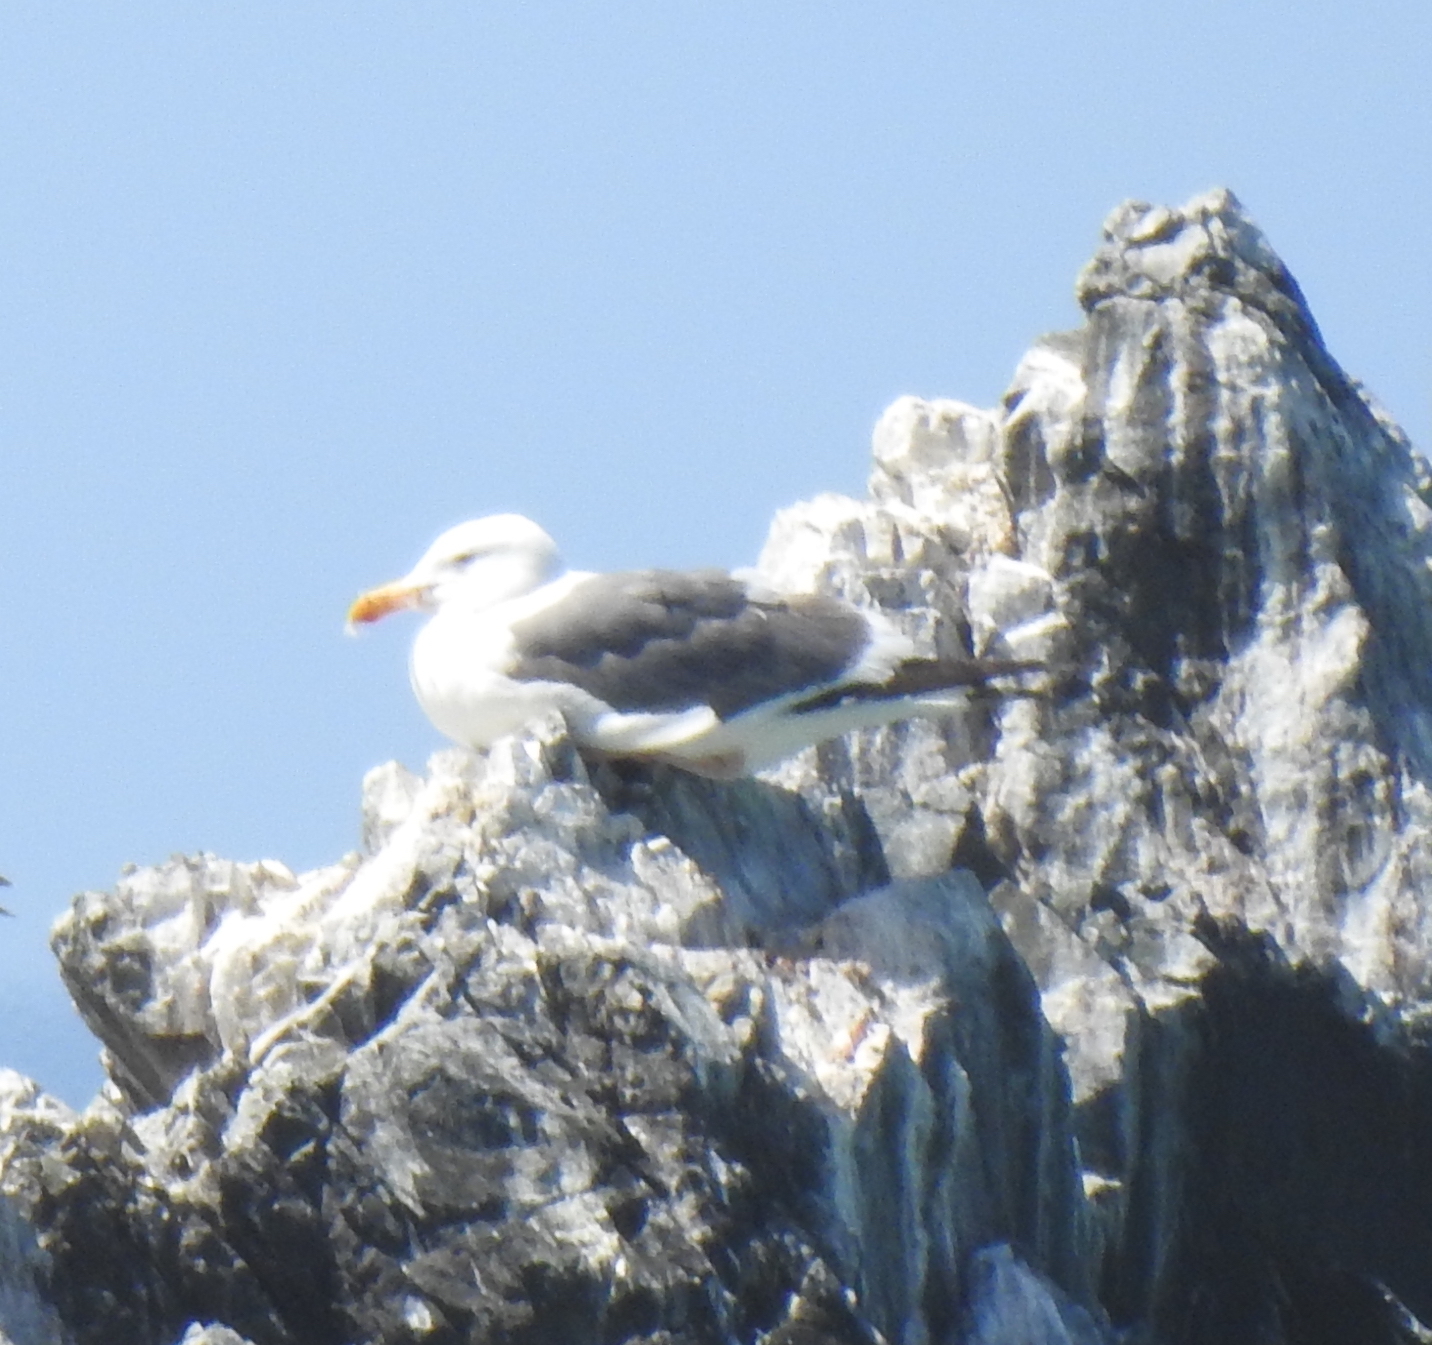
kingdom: Animalia
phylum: Chordata
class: Aves
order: Charadriiformes
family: Laridae
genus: Larus
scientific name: Larus occidentalis
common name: Western gull
